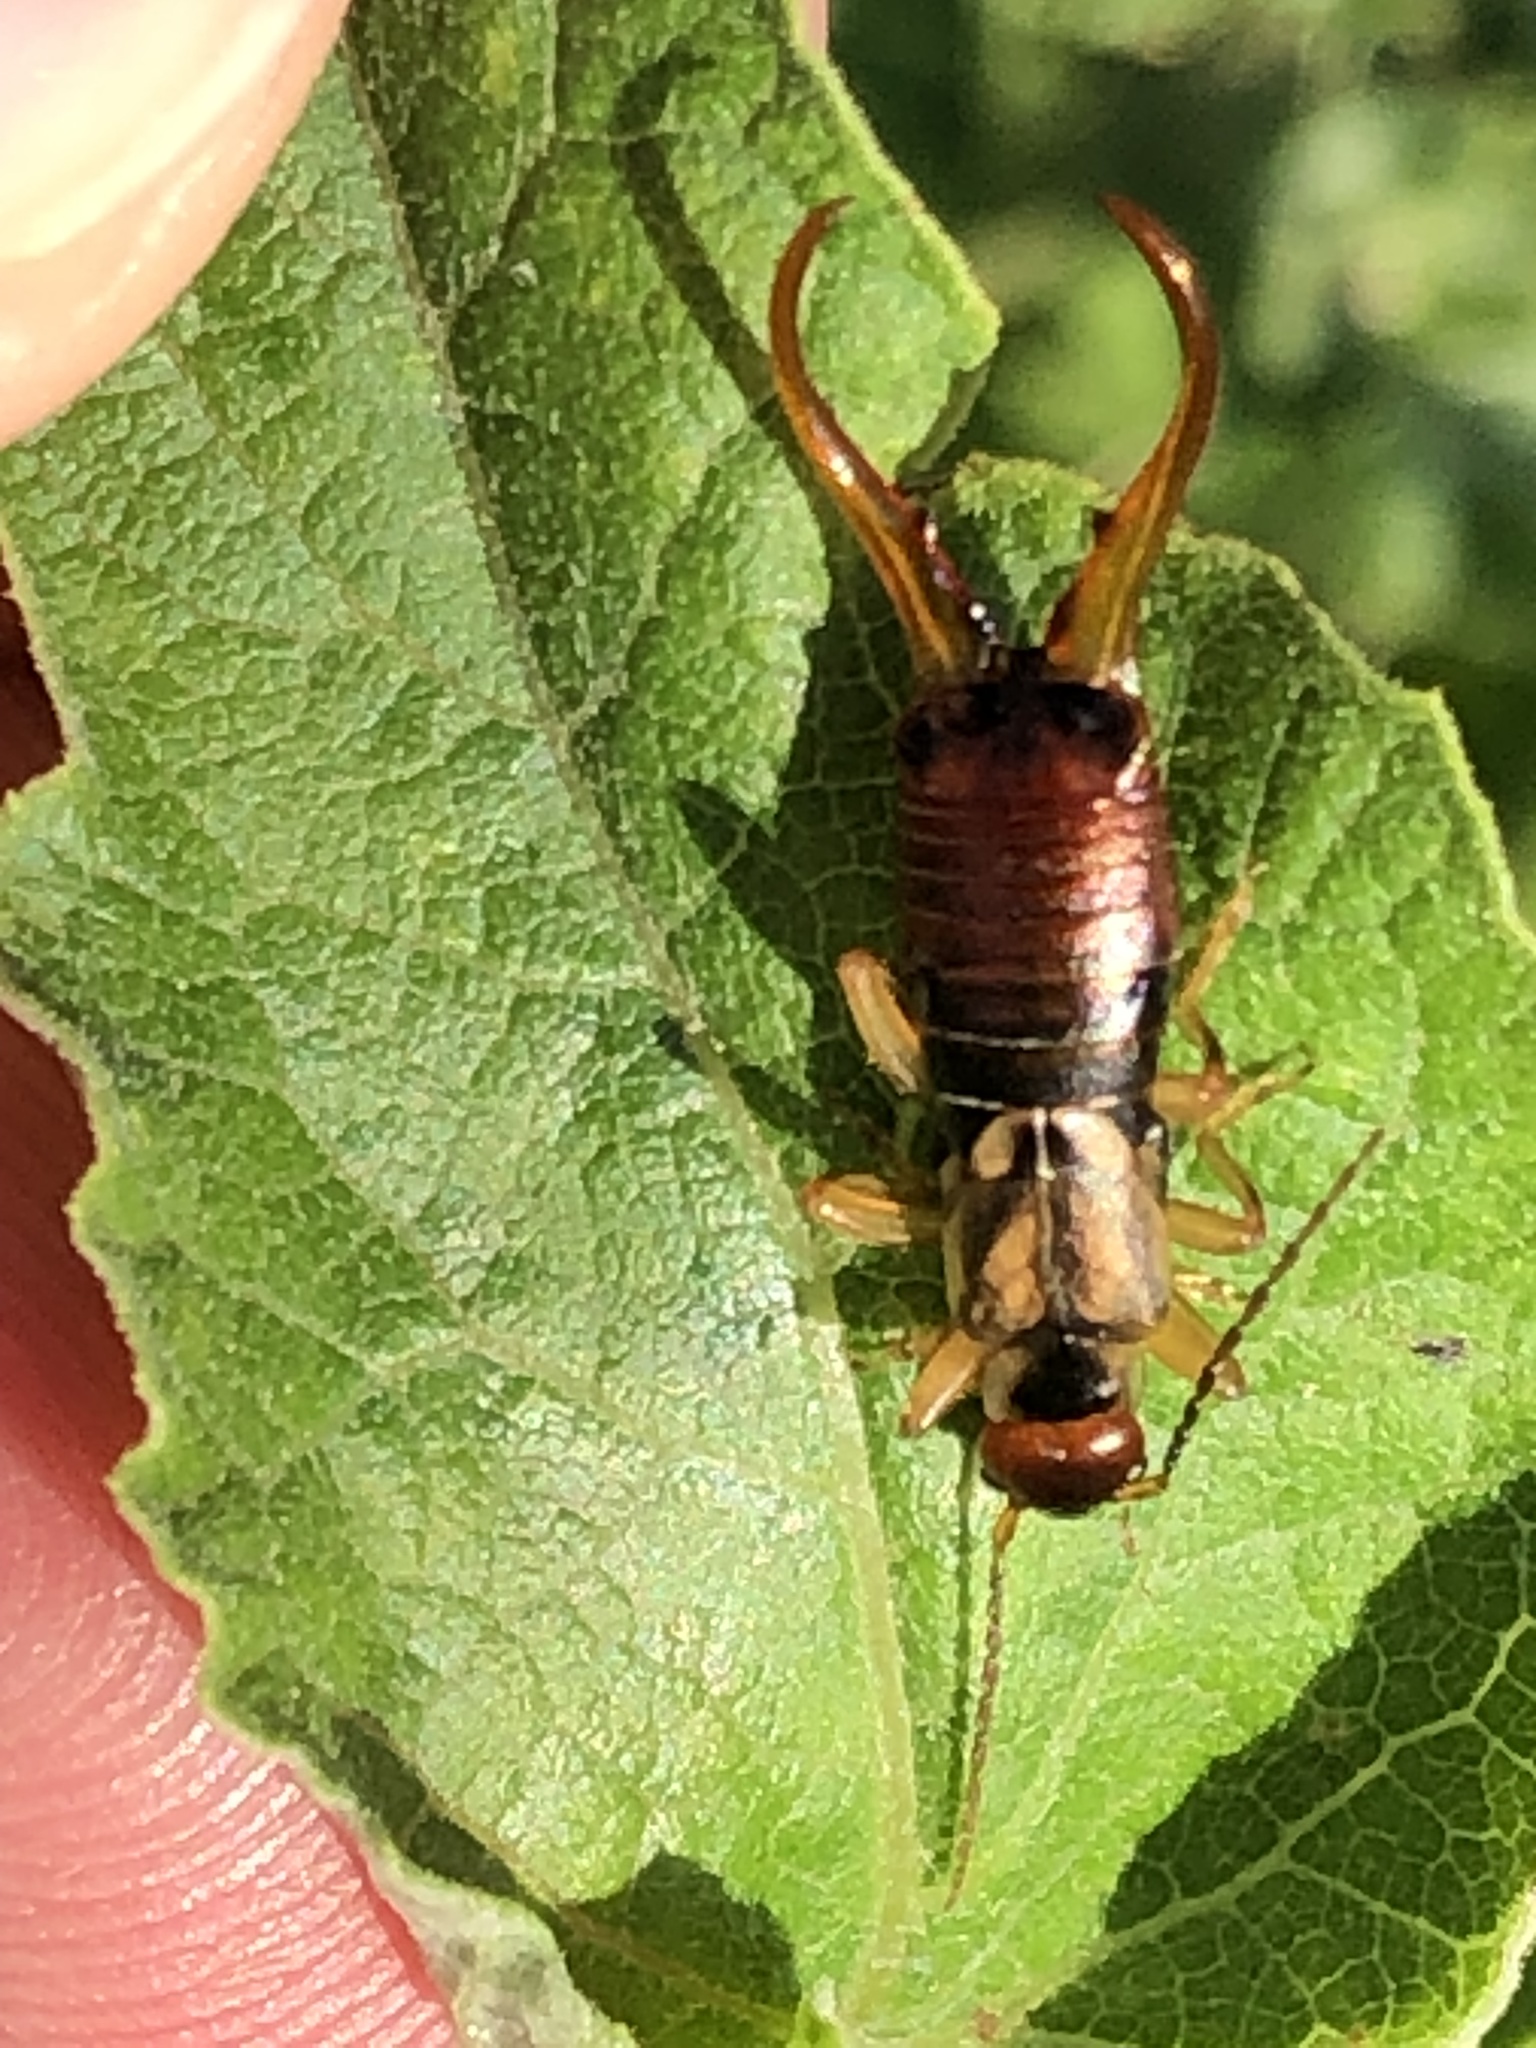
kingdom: Animalia
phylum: Arthropoda
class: Insecta
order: Dermaptera
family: Forficulidae
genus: Forficula
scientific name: Forficula
